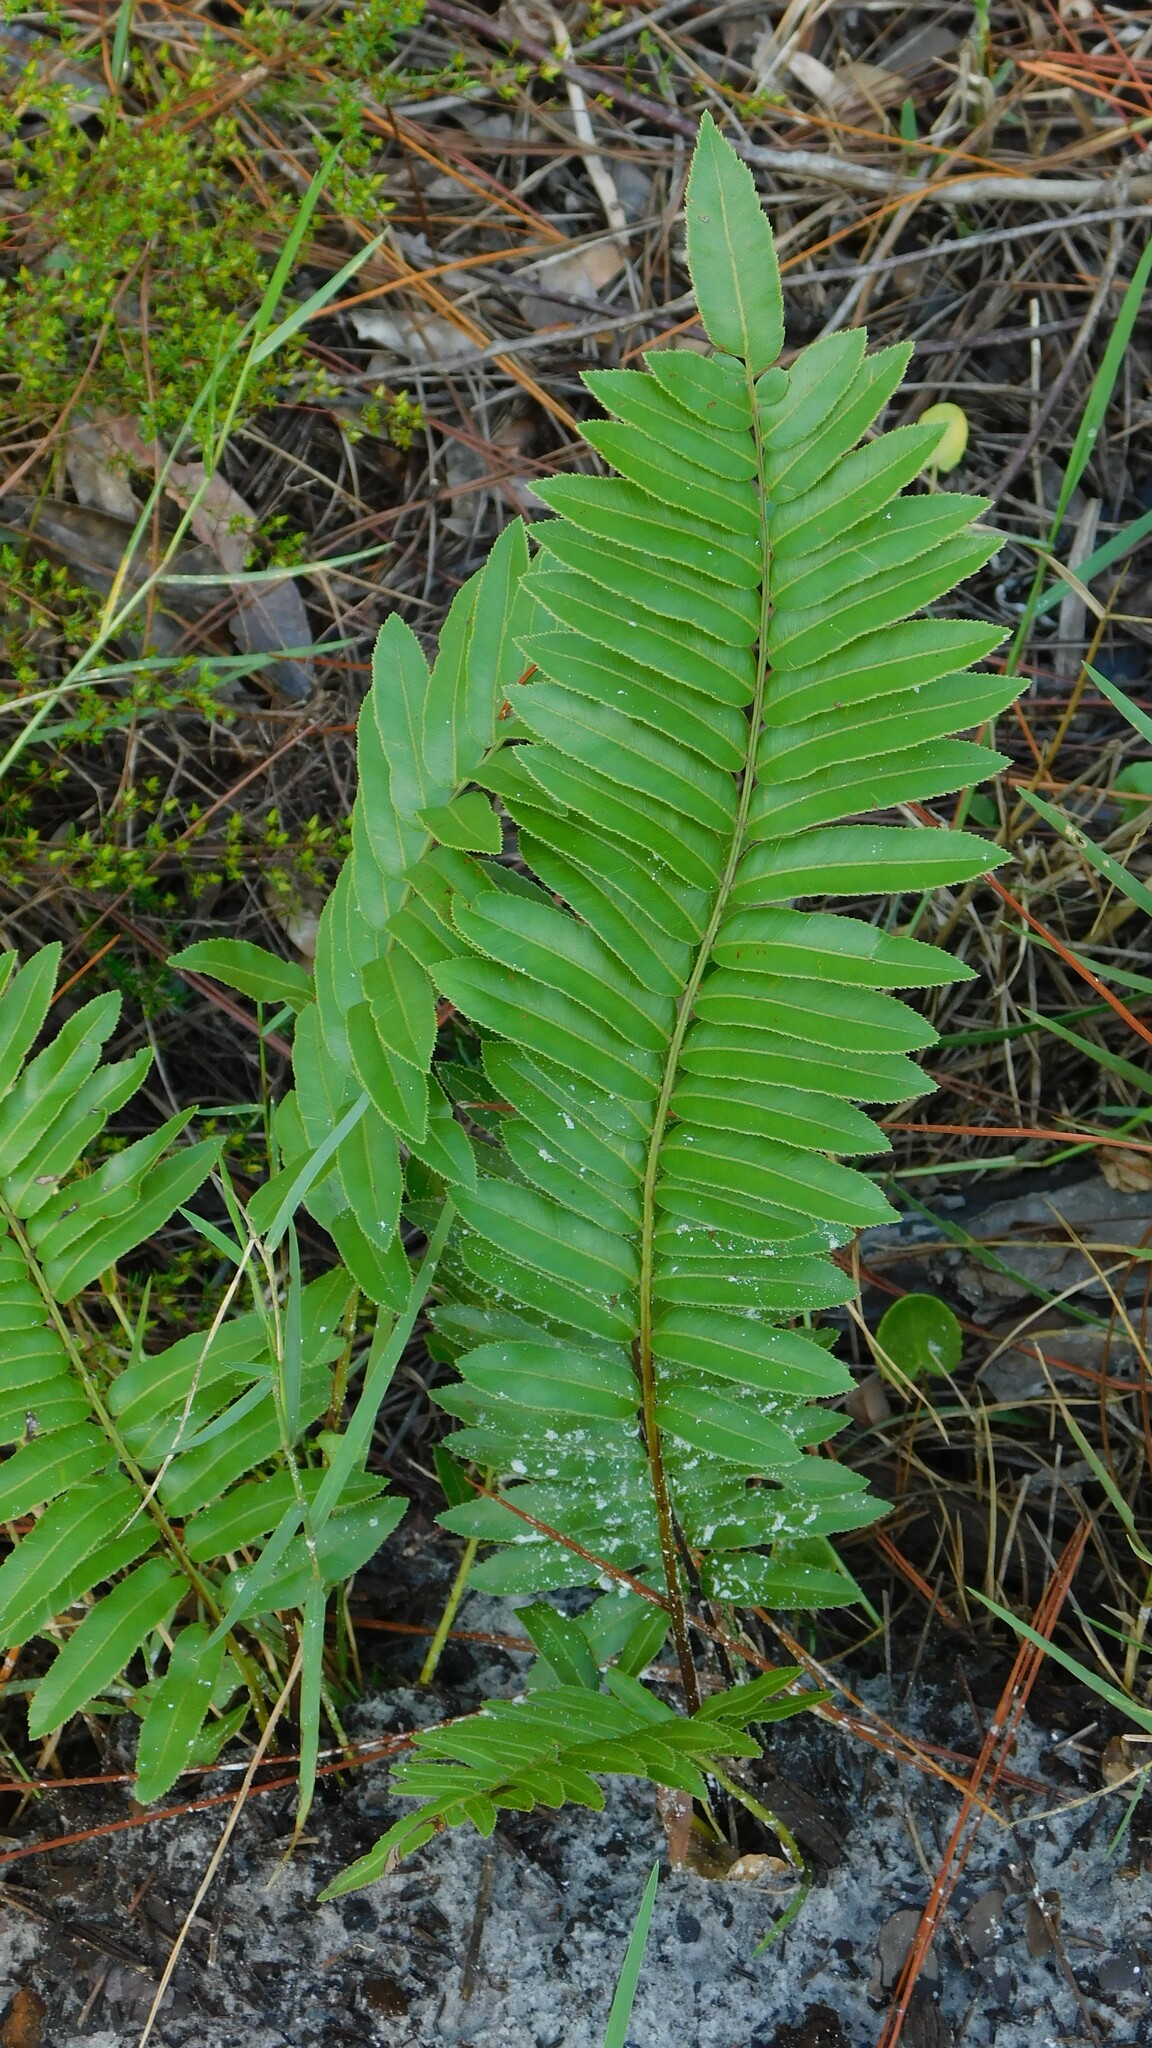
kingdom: Plantae
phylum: Tracheophyta
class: Polypodiopsida
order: Polypodiales
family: Blechnaceae
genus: Telmatoblechnum
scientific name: Telmatoblechnum serrulatum
